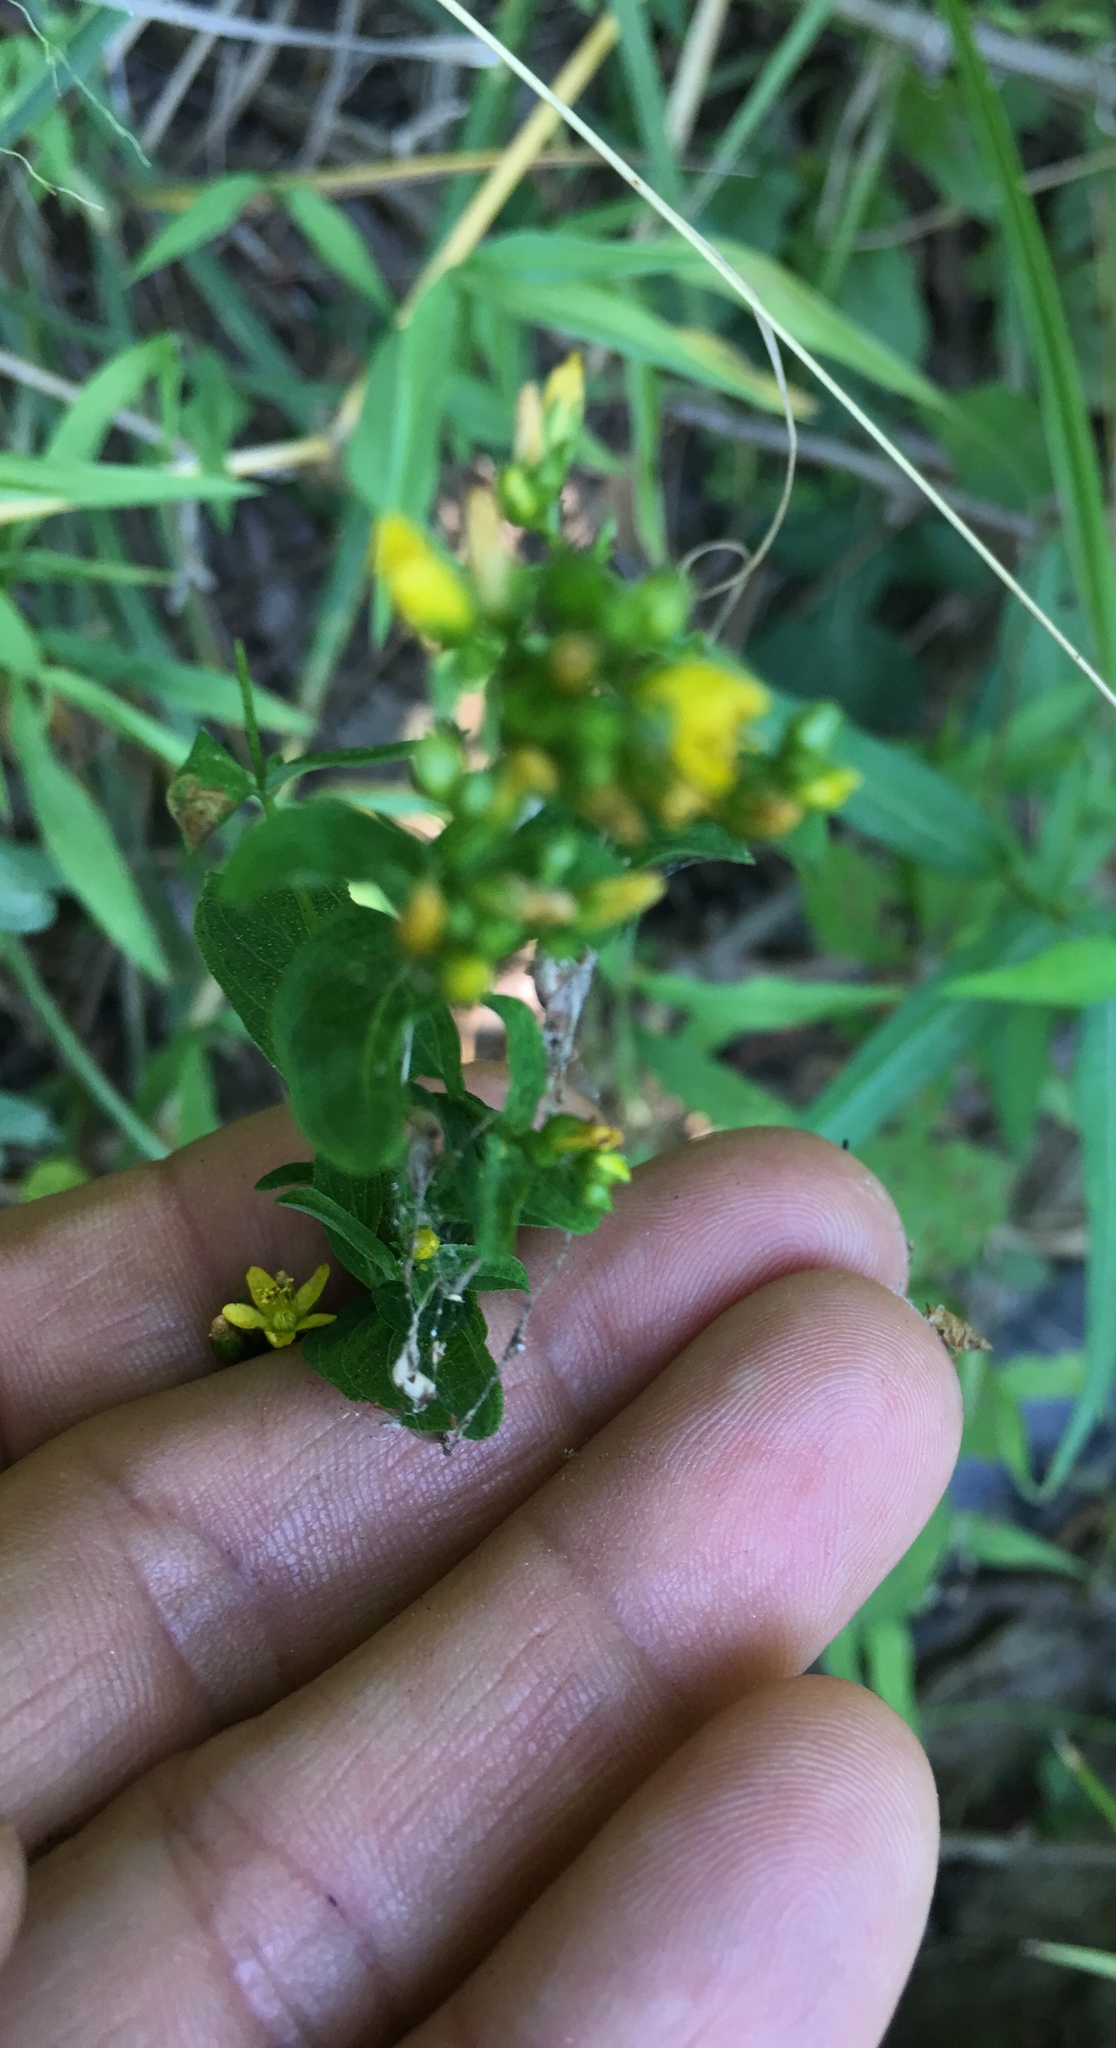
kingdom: Plantae
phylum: Tracheophyta
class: Magnoliopsida
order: Malpighiales
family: Hypericaceae
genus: Hypericum
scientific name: Hypericum punctatum
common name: Spotted st. john's-wort
